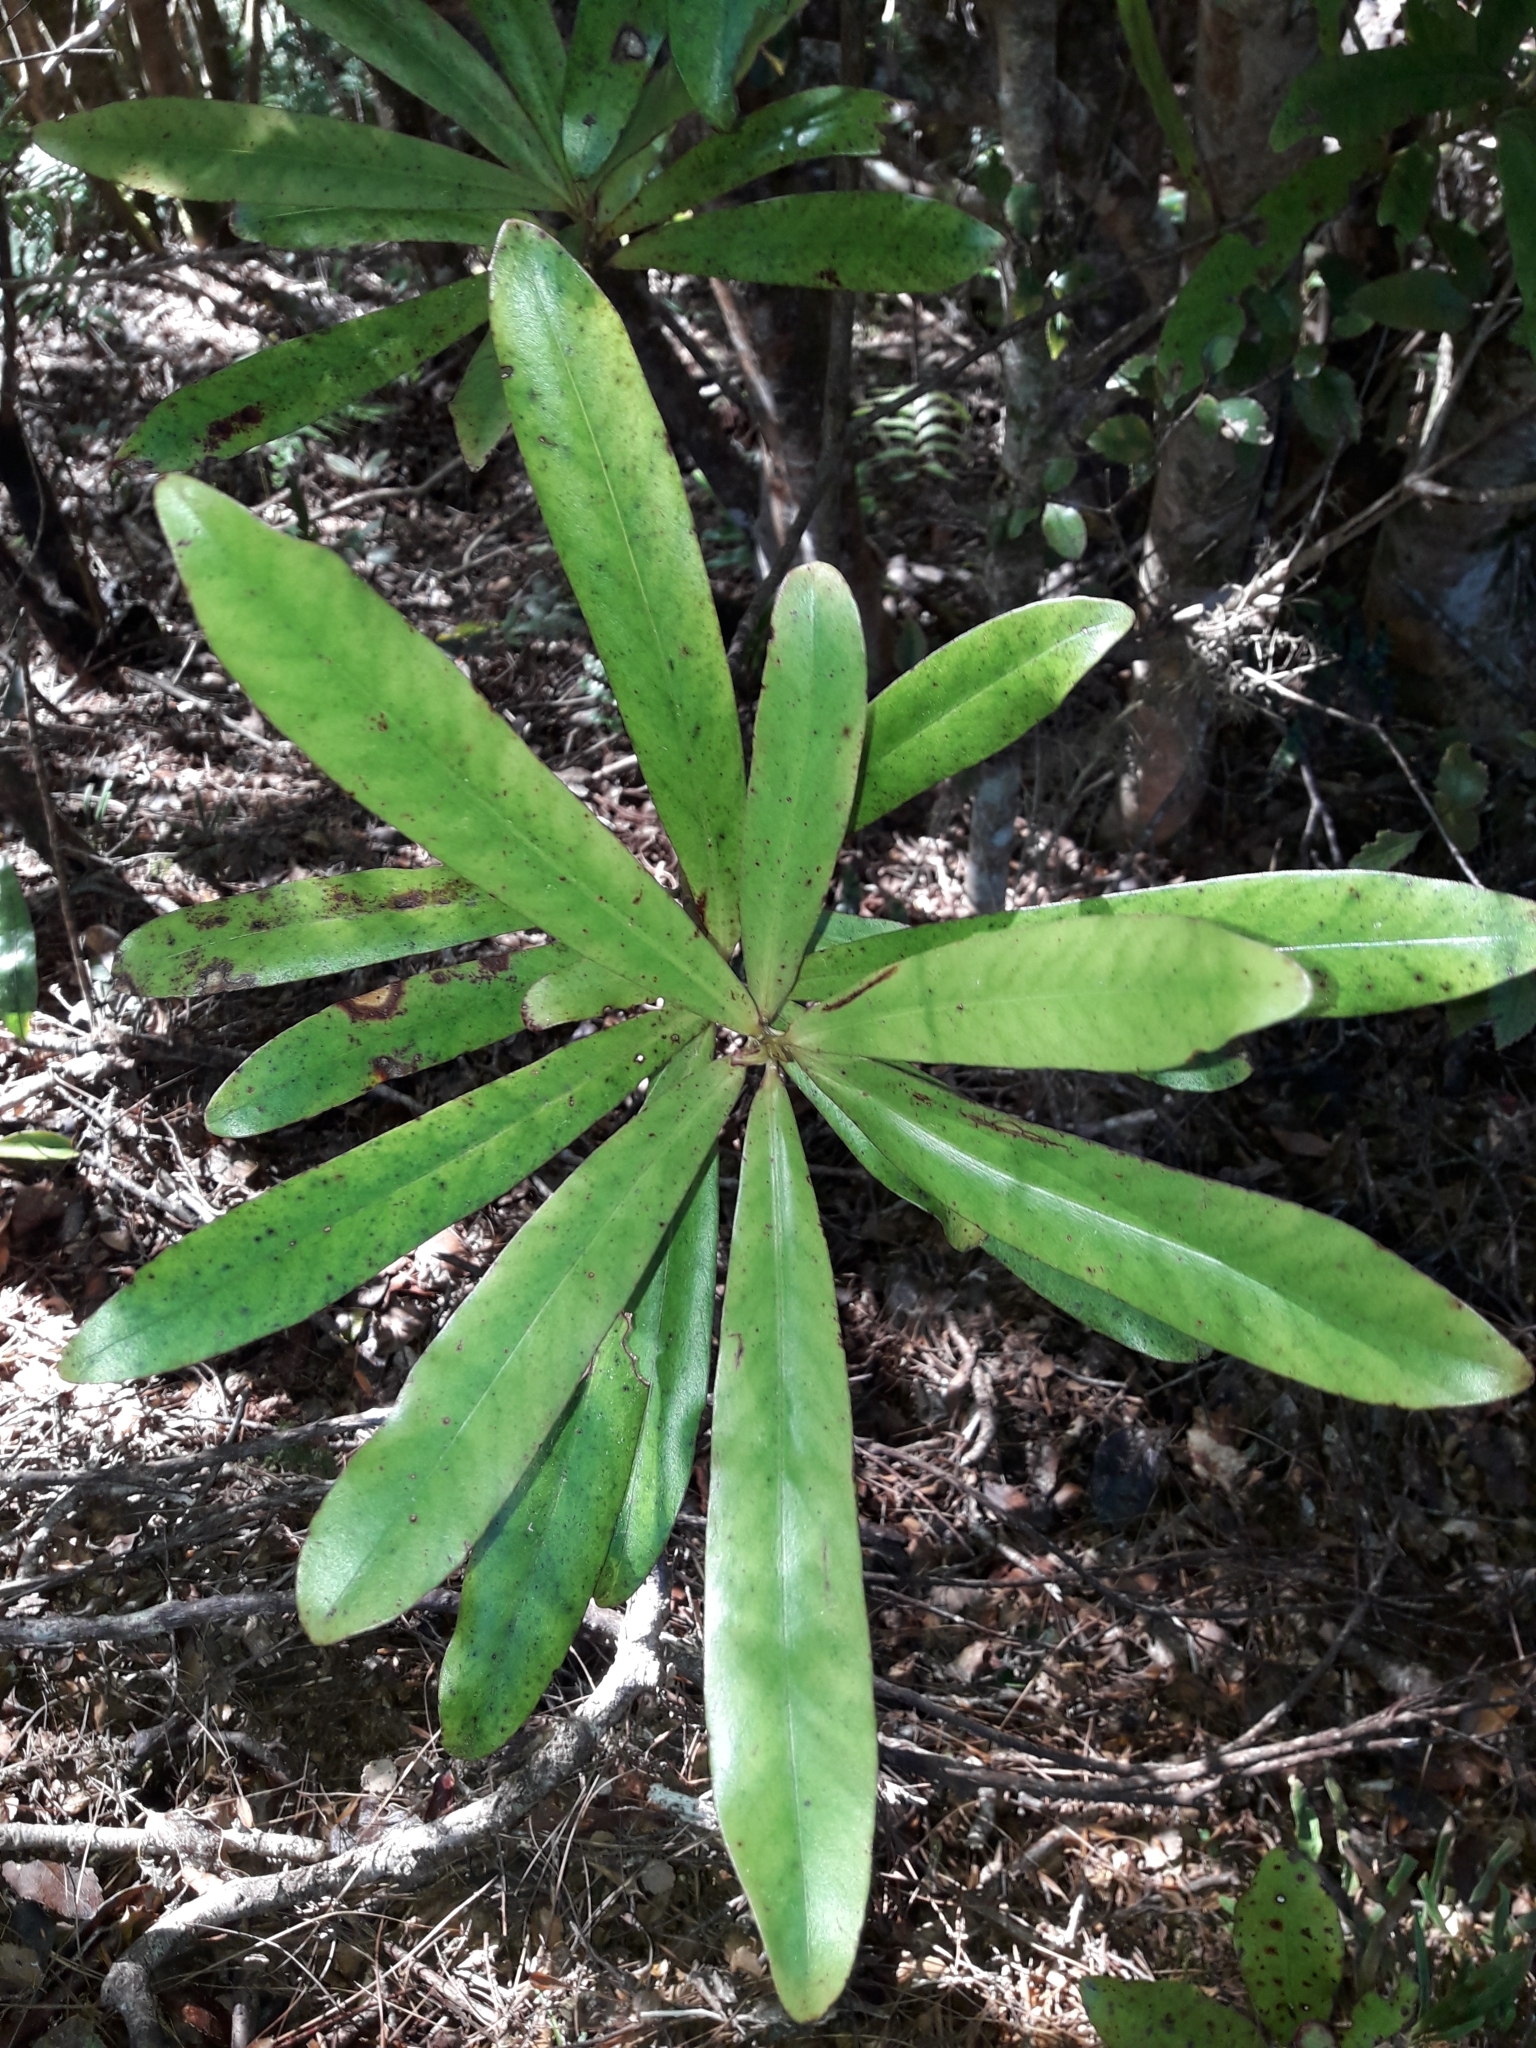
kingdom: Plantae
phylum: Tracheophyta
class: Magnoliopsida
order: Ericales
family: Primulaceae
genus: Myrsine
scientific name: Myrsine salicina
